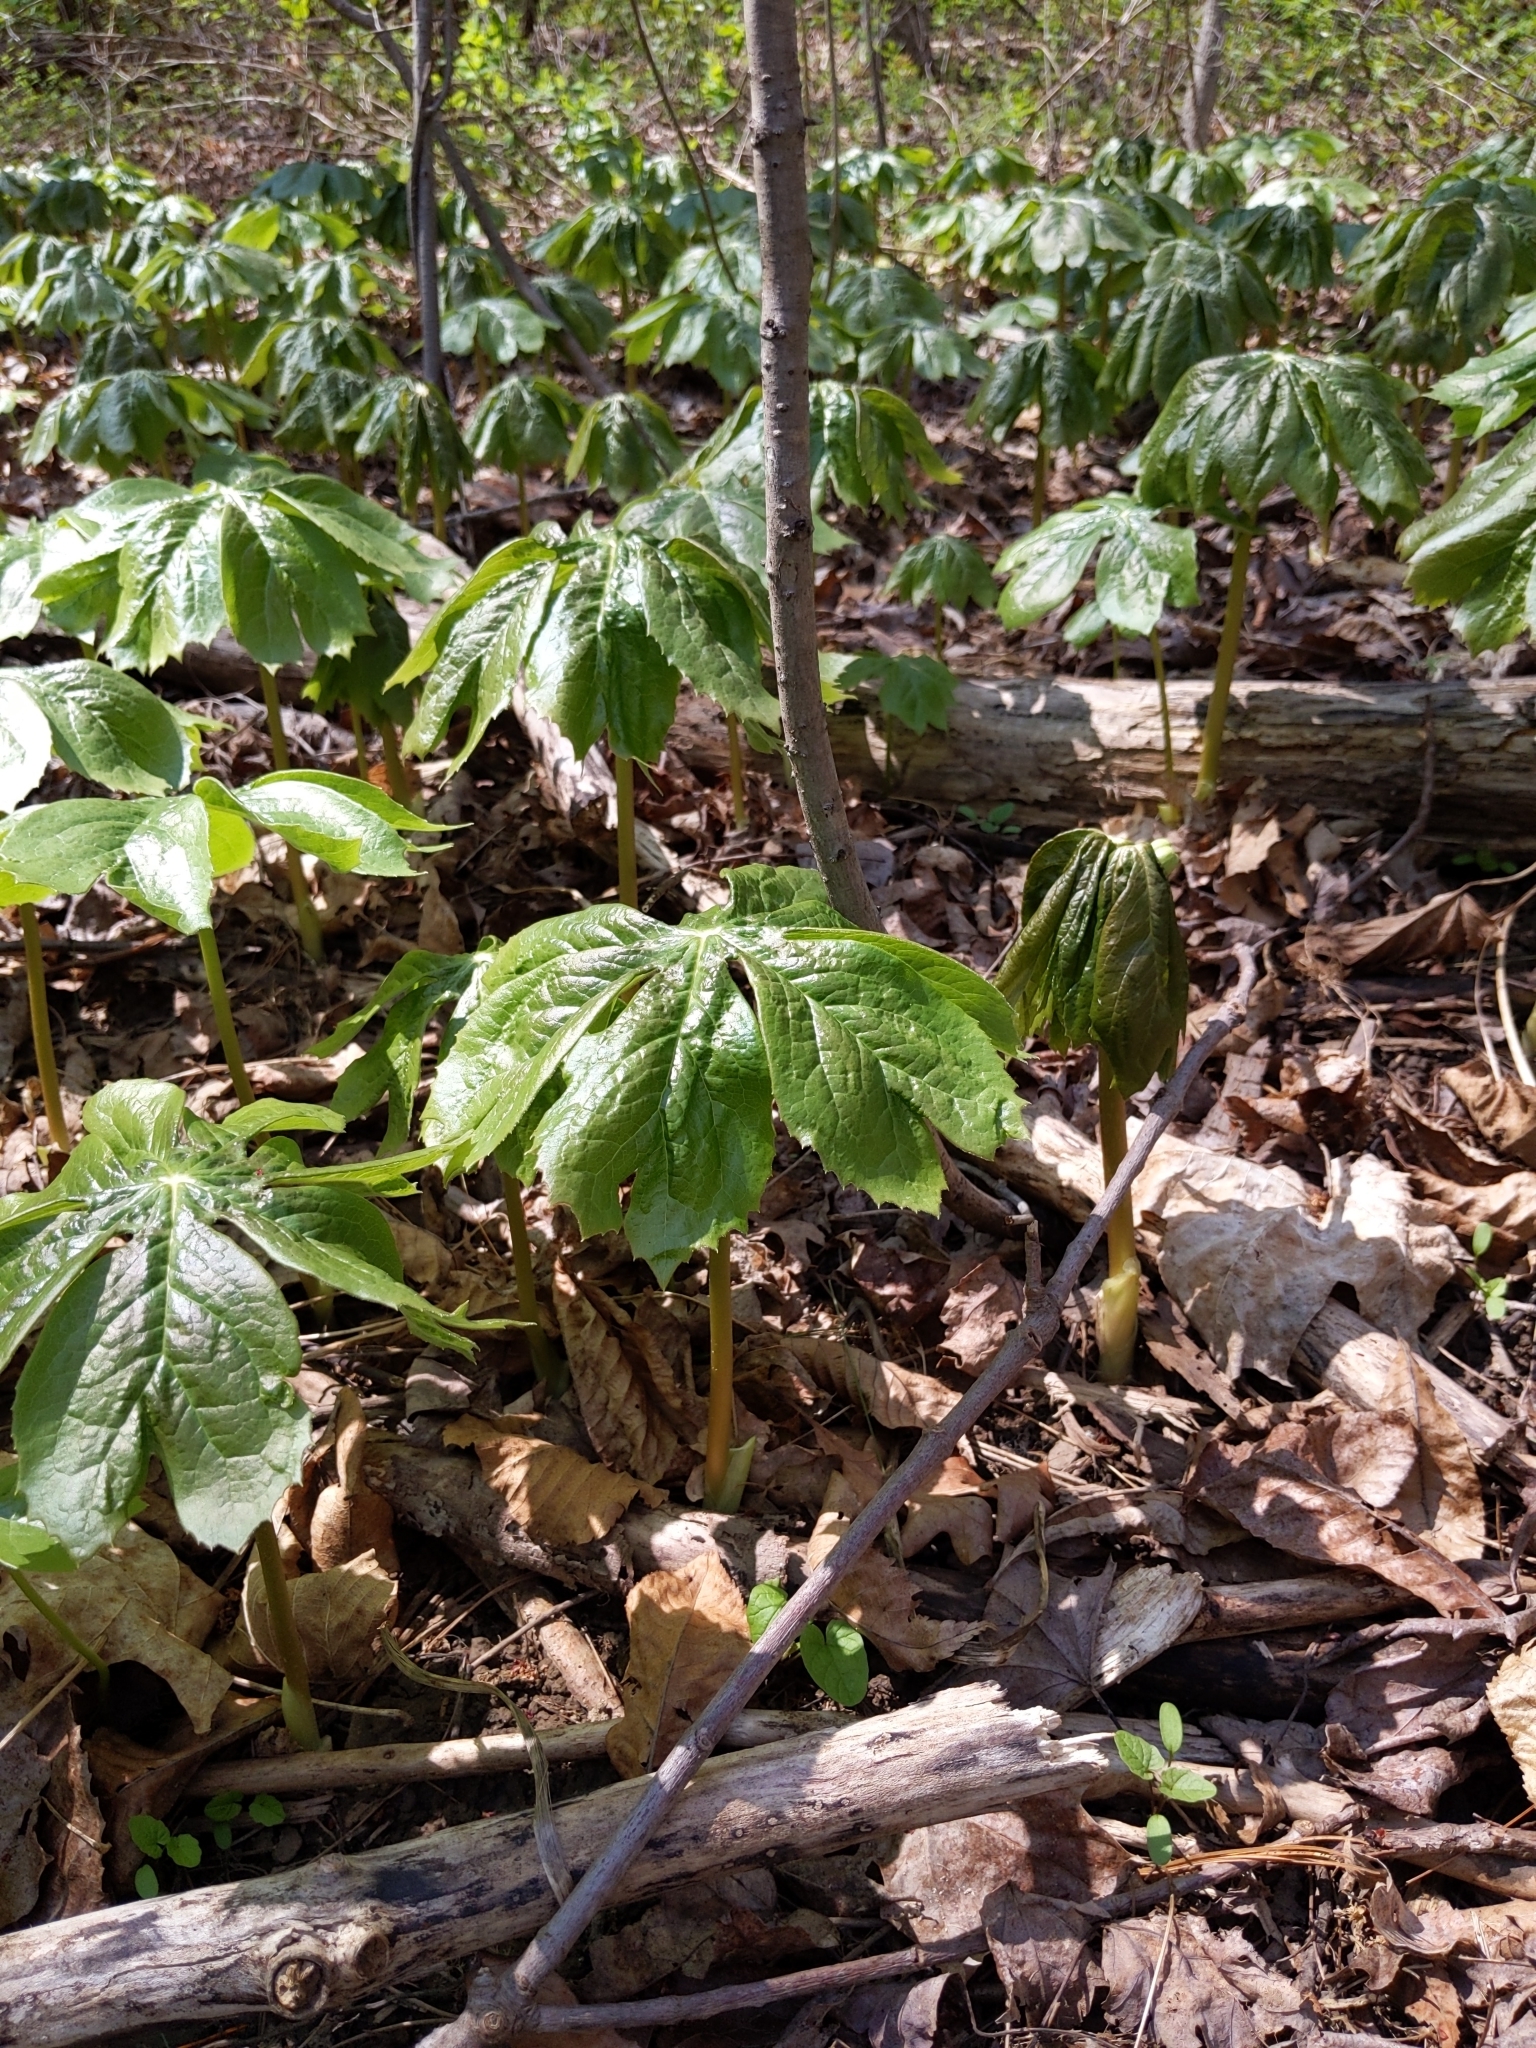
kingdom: Plantae
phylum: Tracheophyta
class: Magnoliopsida
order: Ranunculales
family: Berberidaceae
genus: Podophyllum
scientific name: Podophyllum peltatum
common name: Wild mandrake
